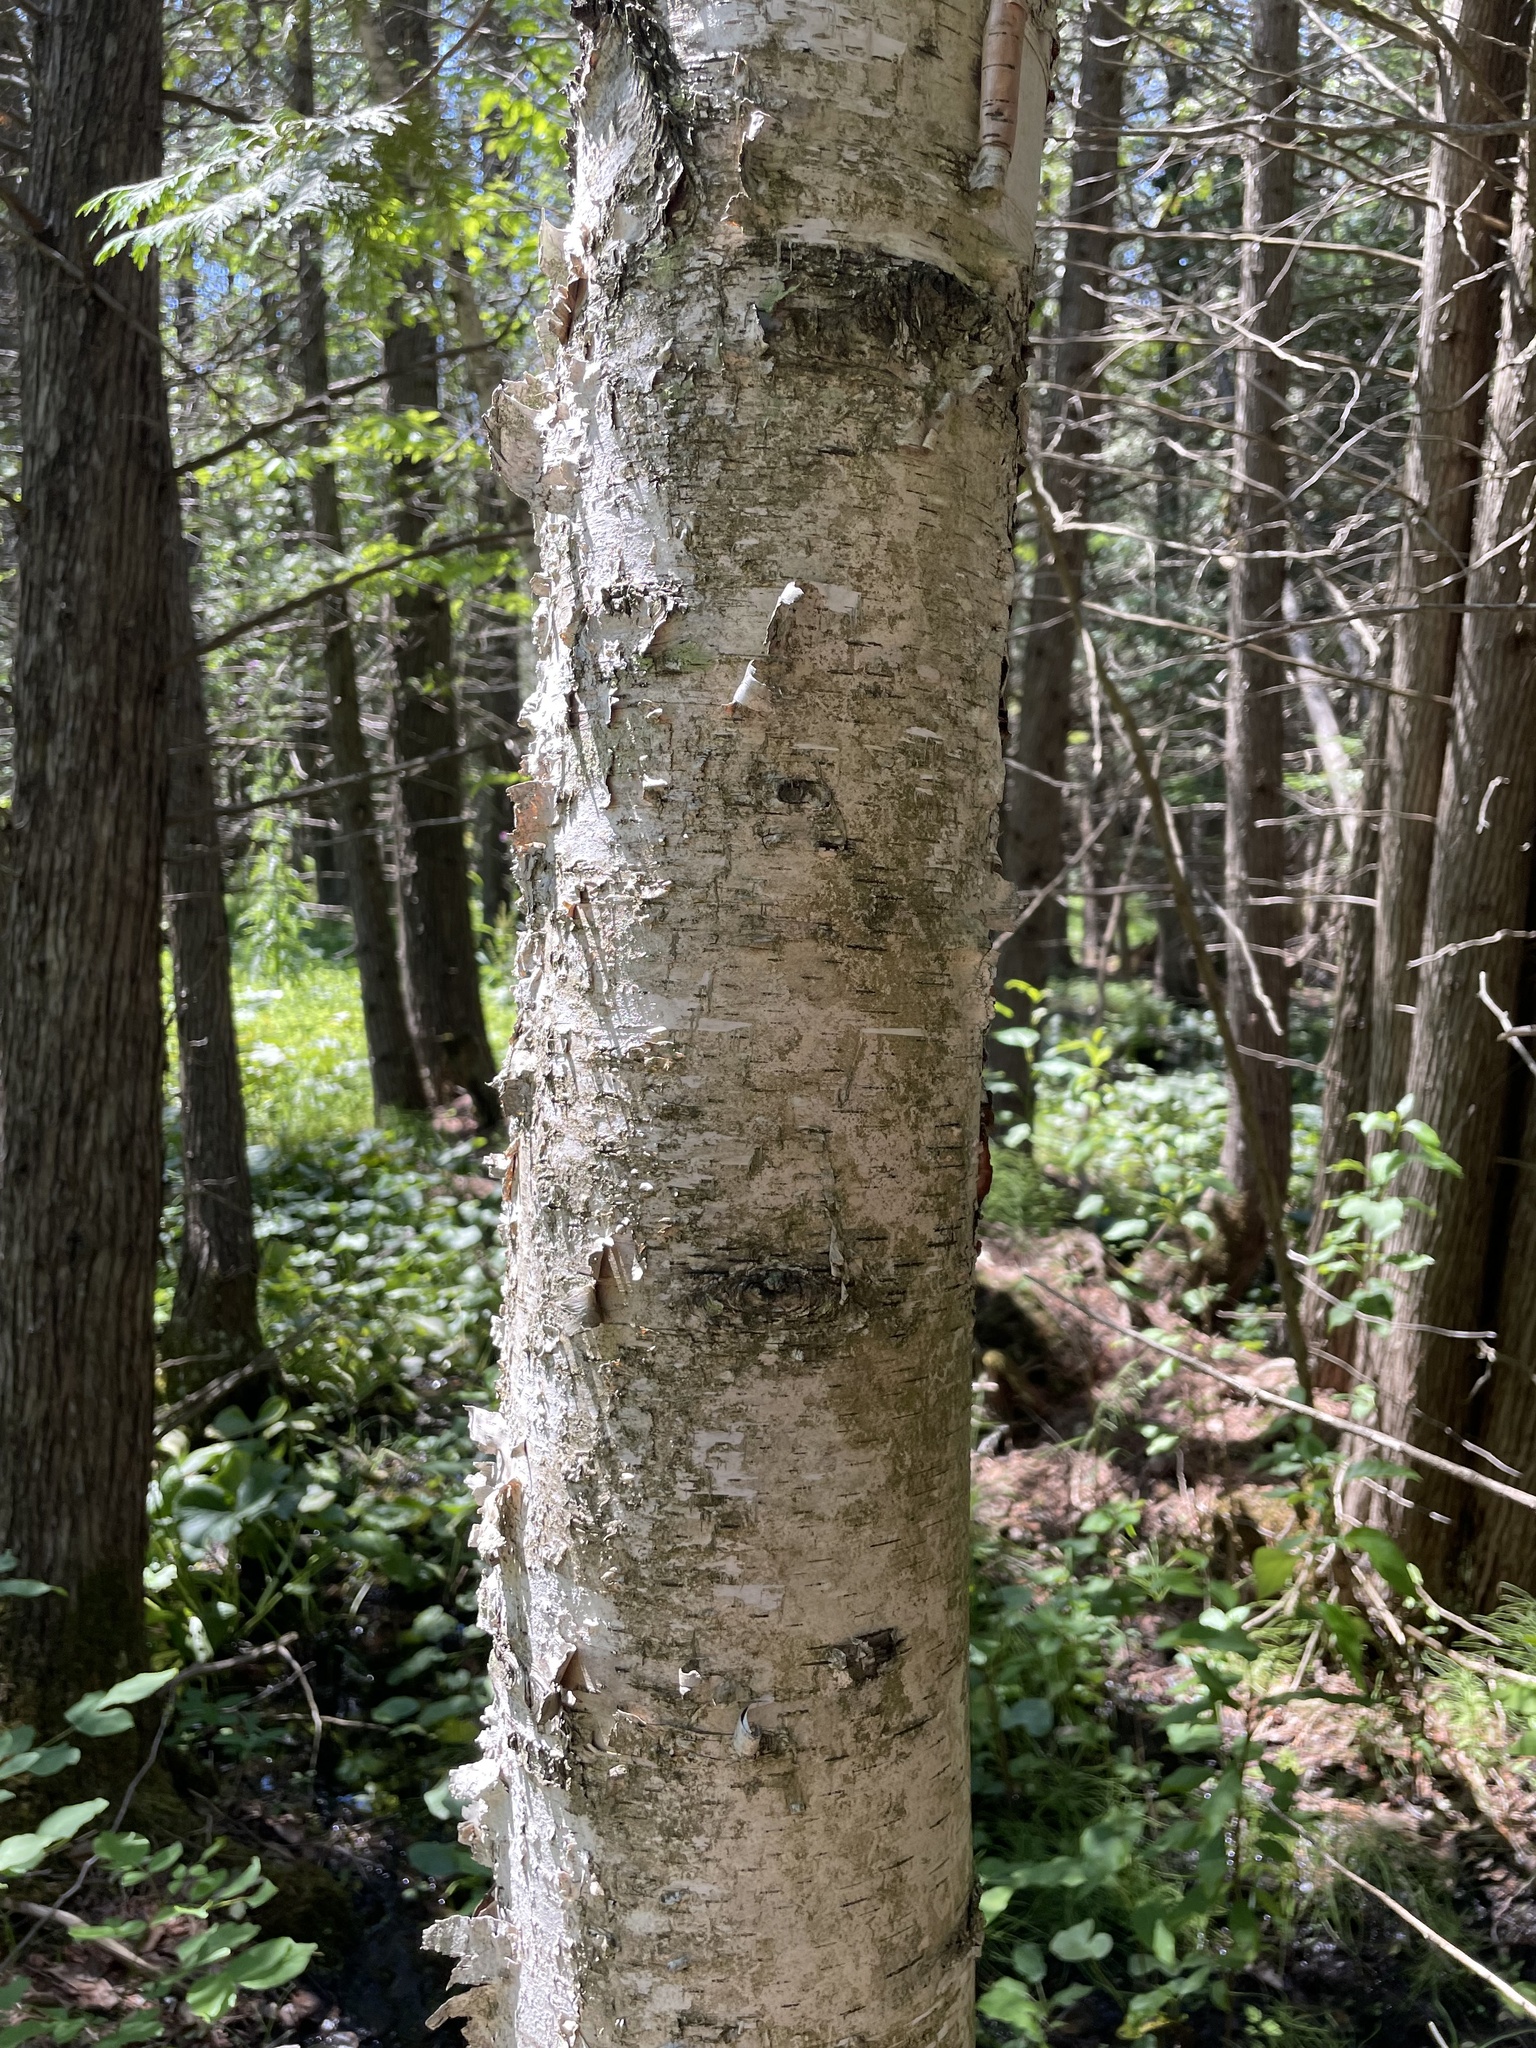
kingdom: Plantae
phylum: Tracheophyta
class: Magnoliopsida
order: Fagales
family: Betulaceae
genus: Betula
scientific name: Betula papyrifera
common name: Paper birch
